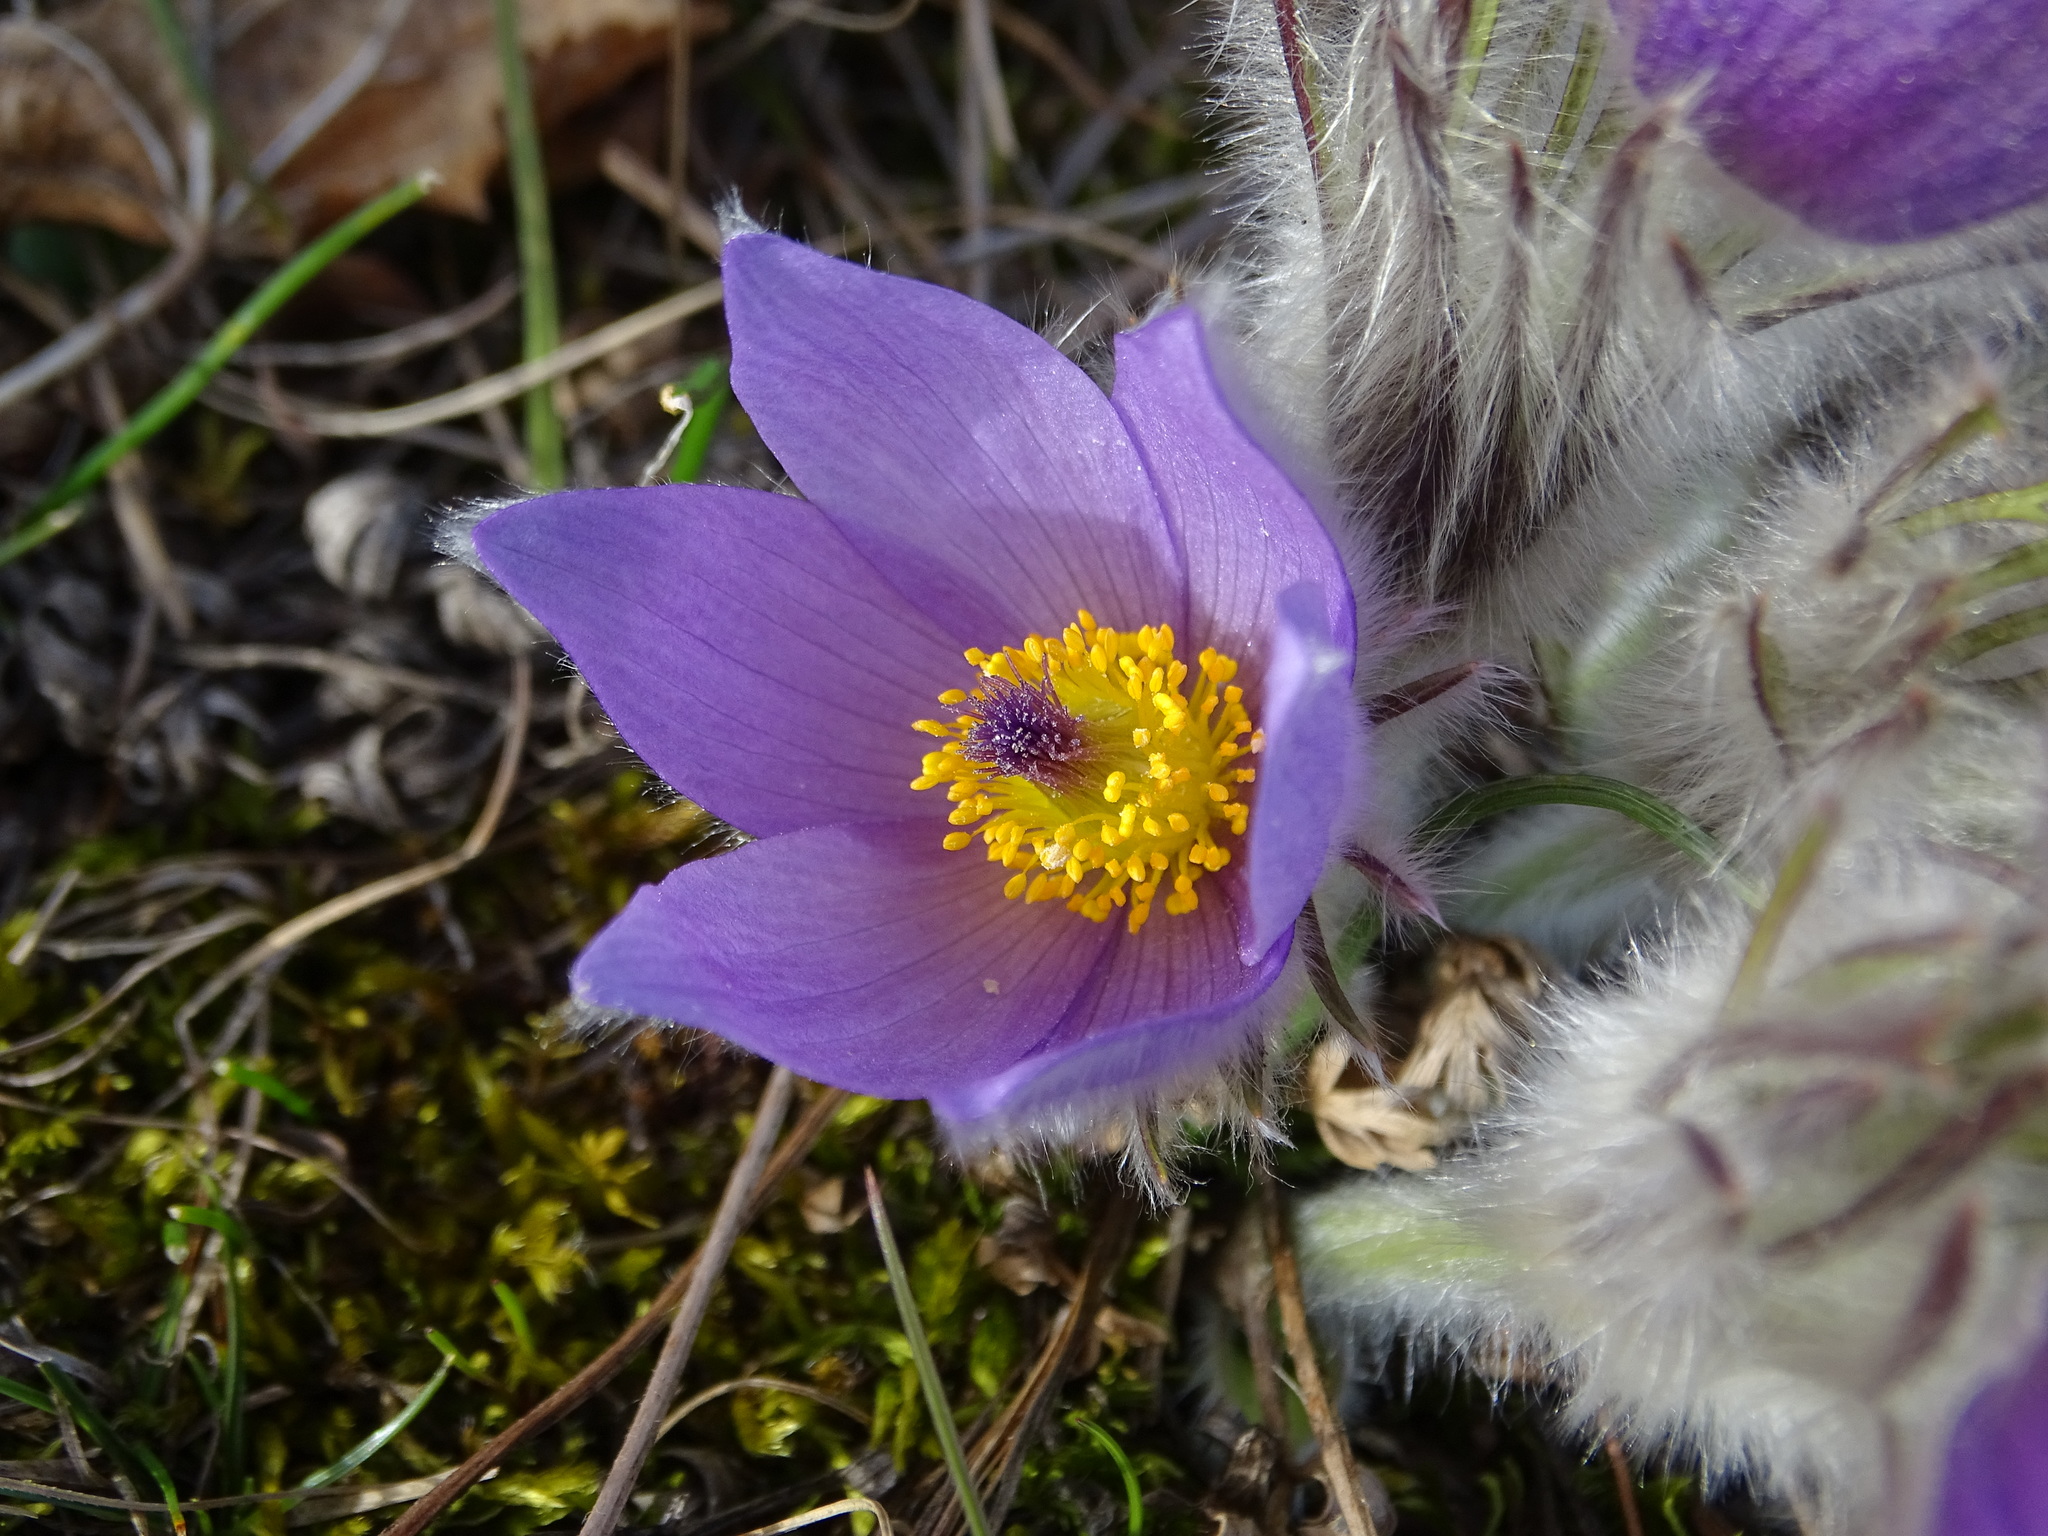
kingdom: Plantae
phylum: Tracheophyta
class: Magnoliopsida
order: Ranunculales
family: Ranunculaceae
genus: Pulsatilla
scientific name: Pulsatilla grandis
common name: Greater pasque flower
